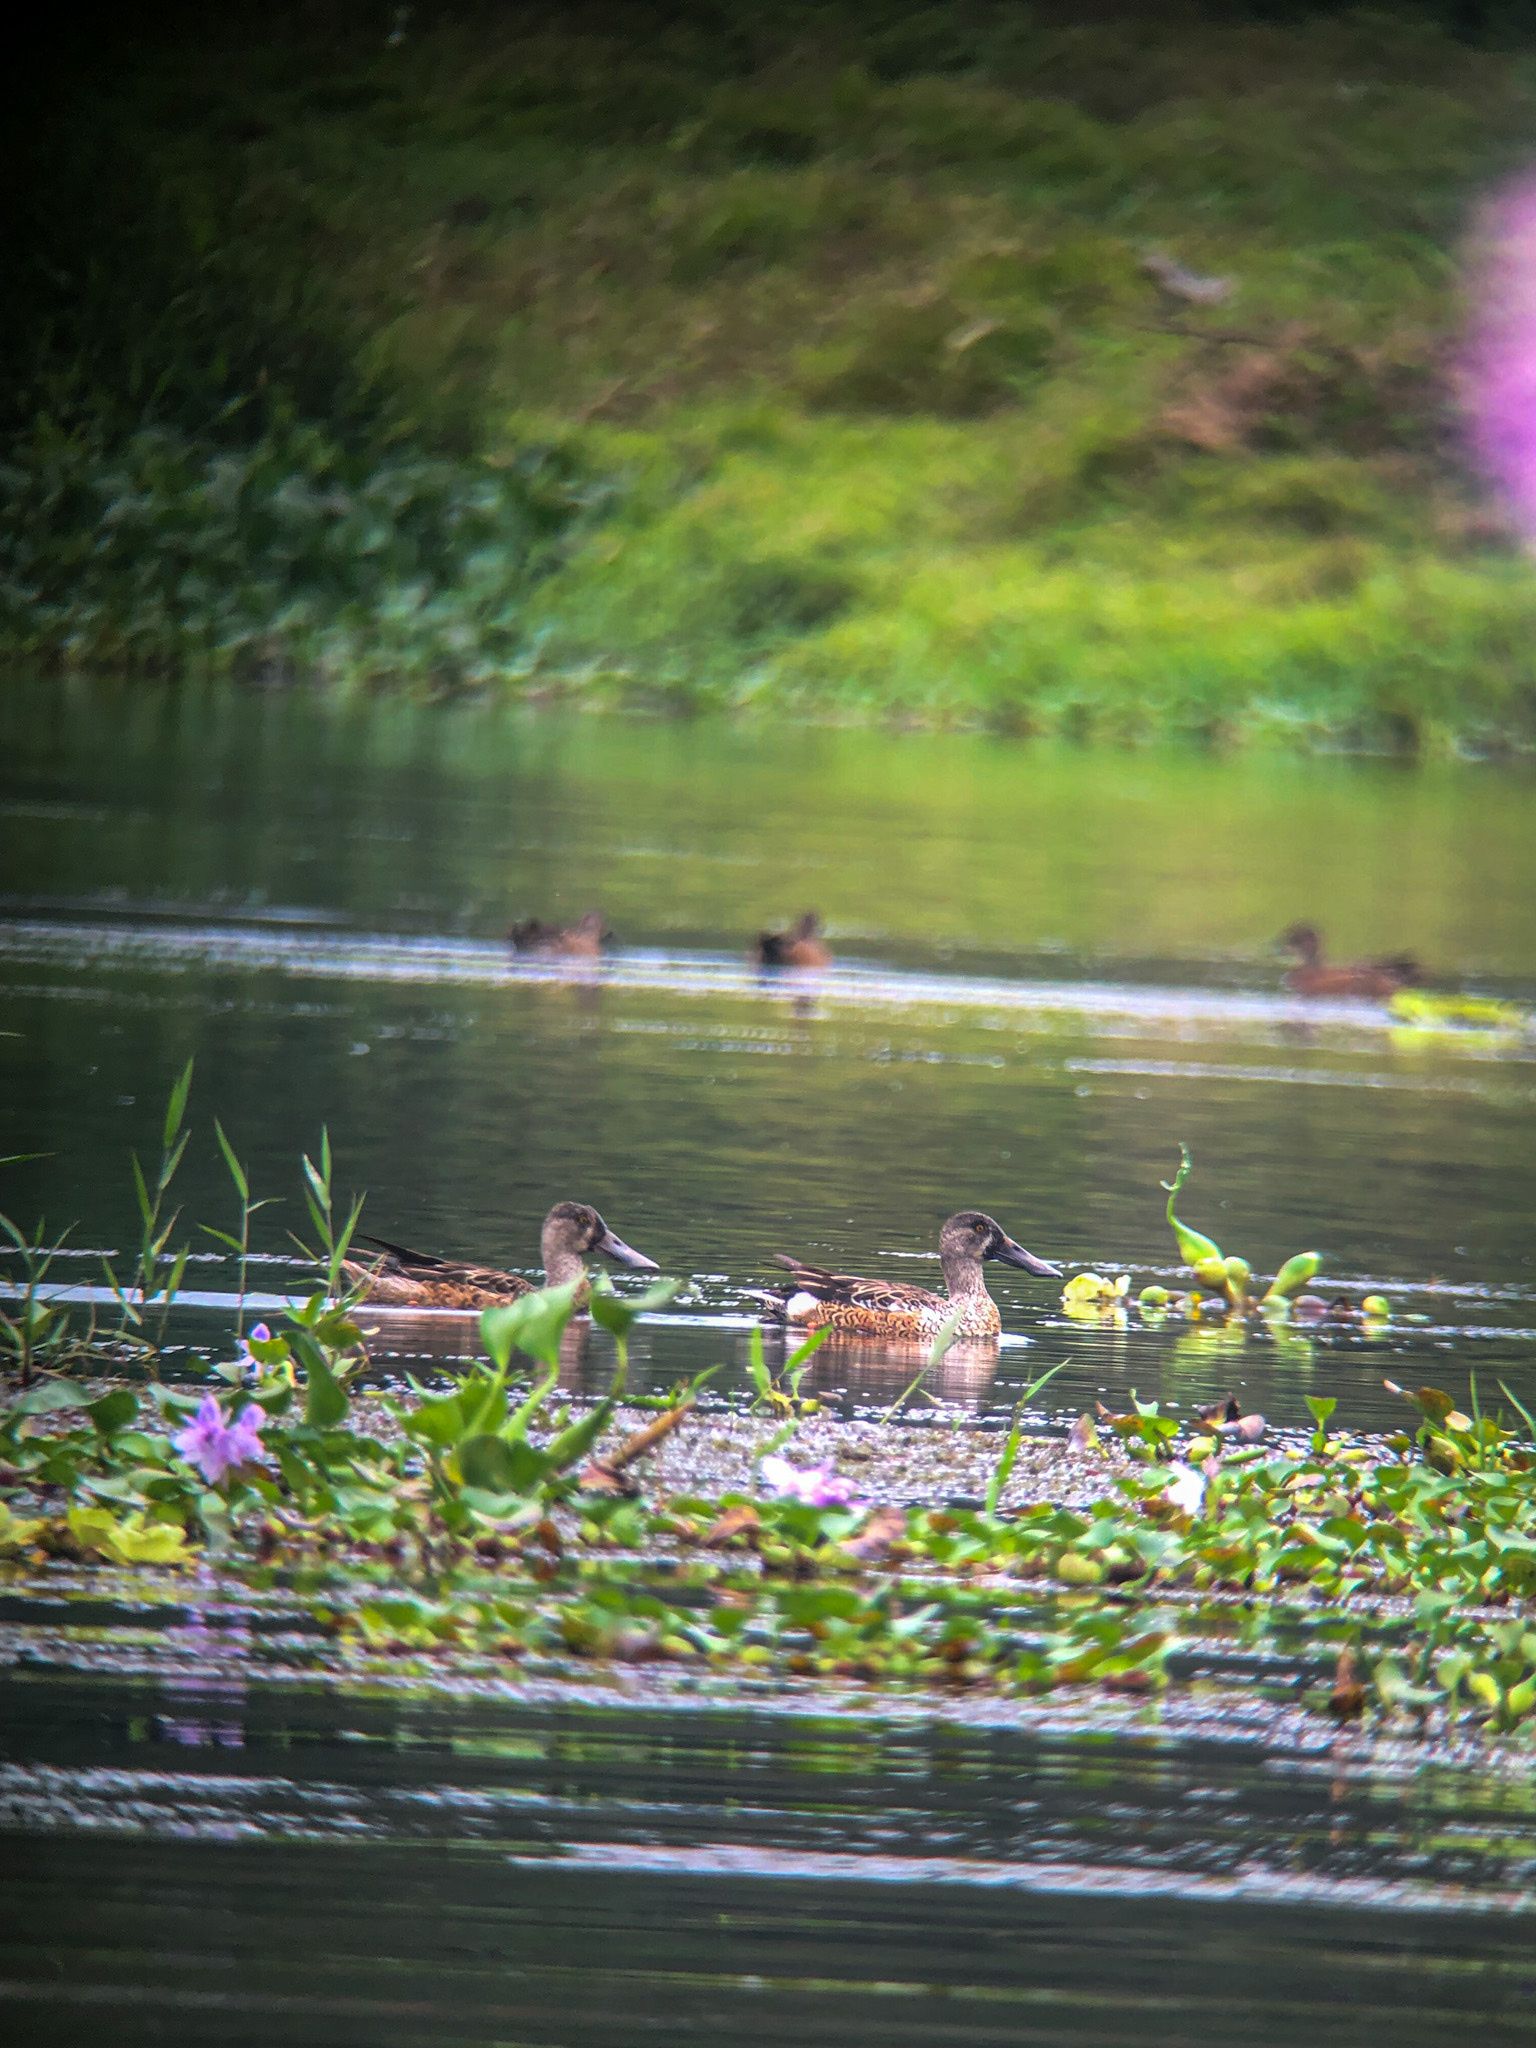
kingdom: Animalia
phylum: Chordata
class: Aves
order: Anseriformes
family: Anatidae
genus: Spatula
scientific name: Spatula clypeata
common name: Northern shoveler
